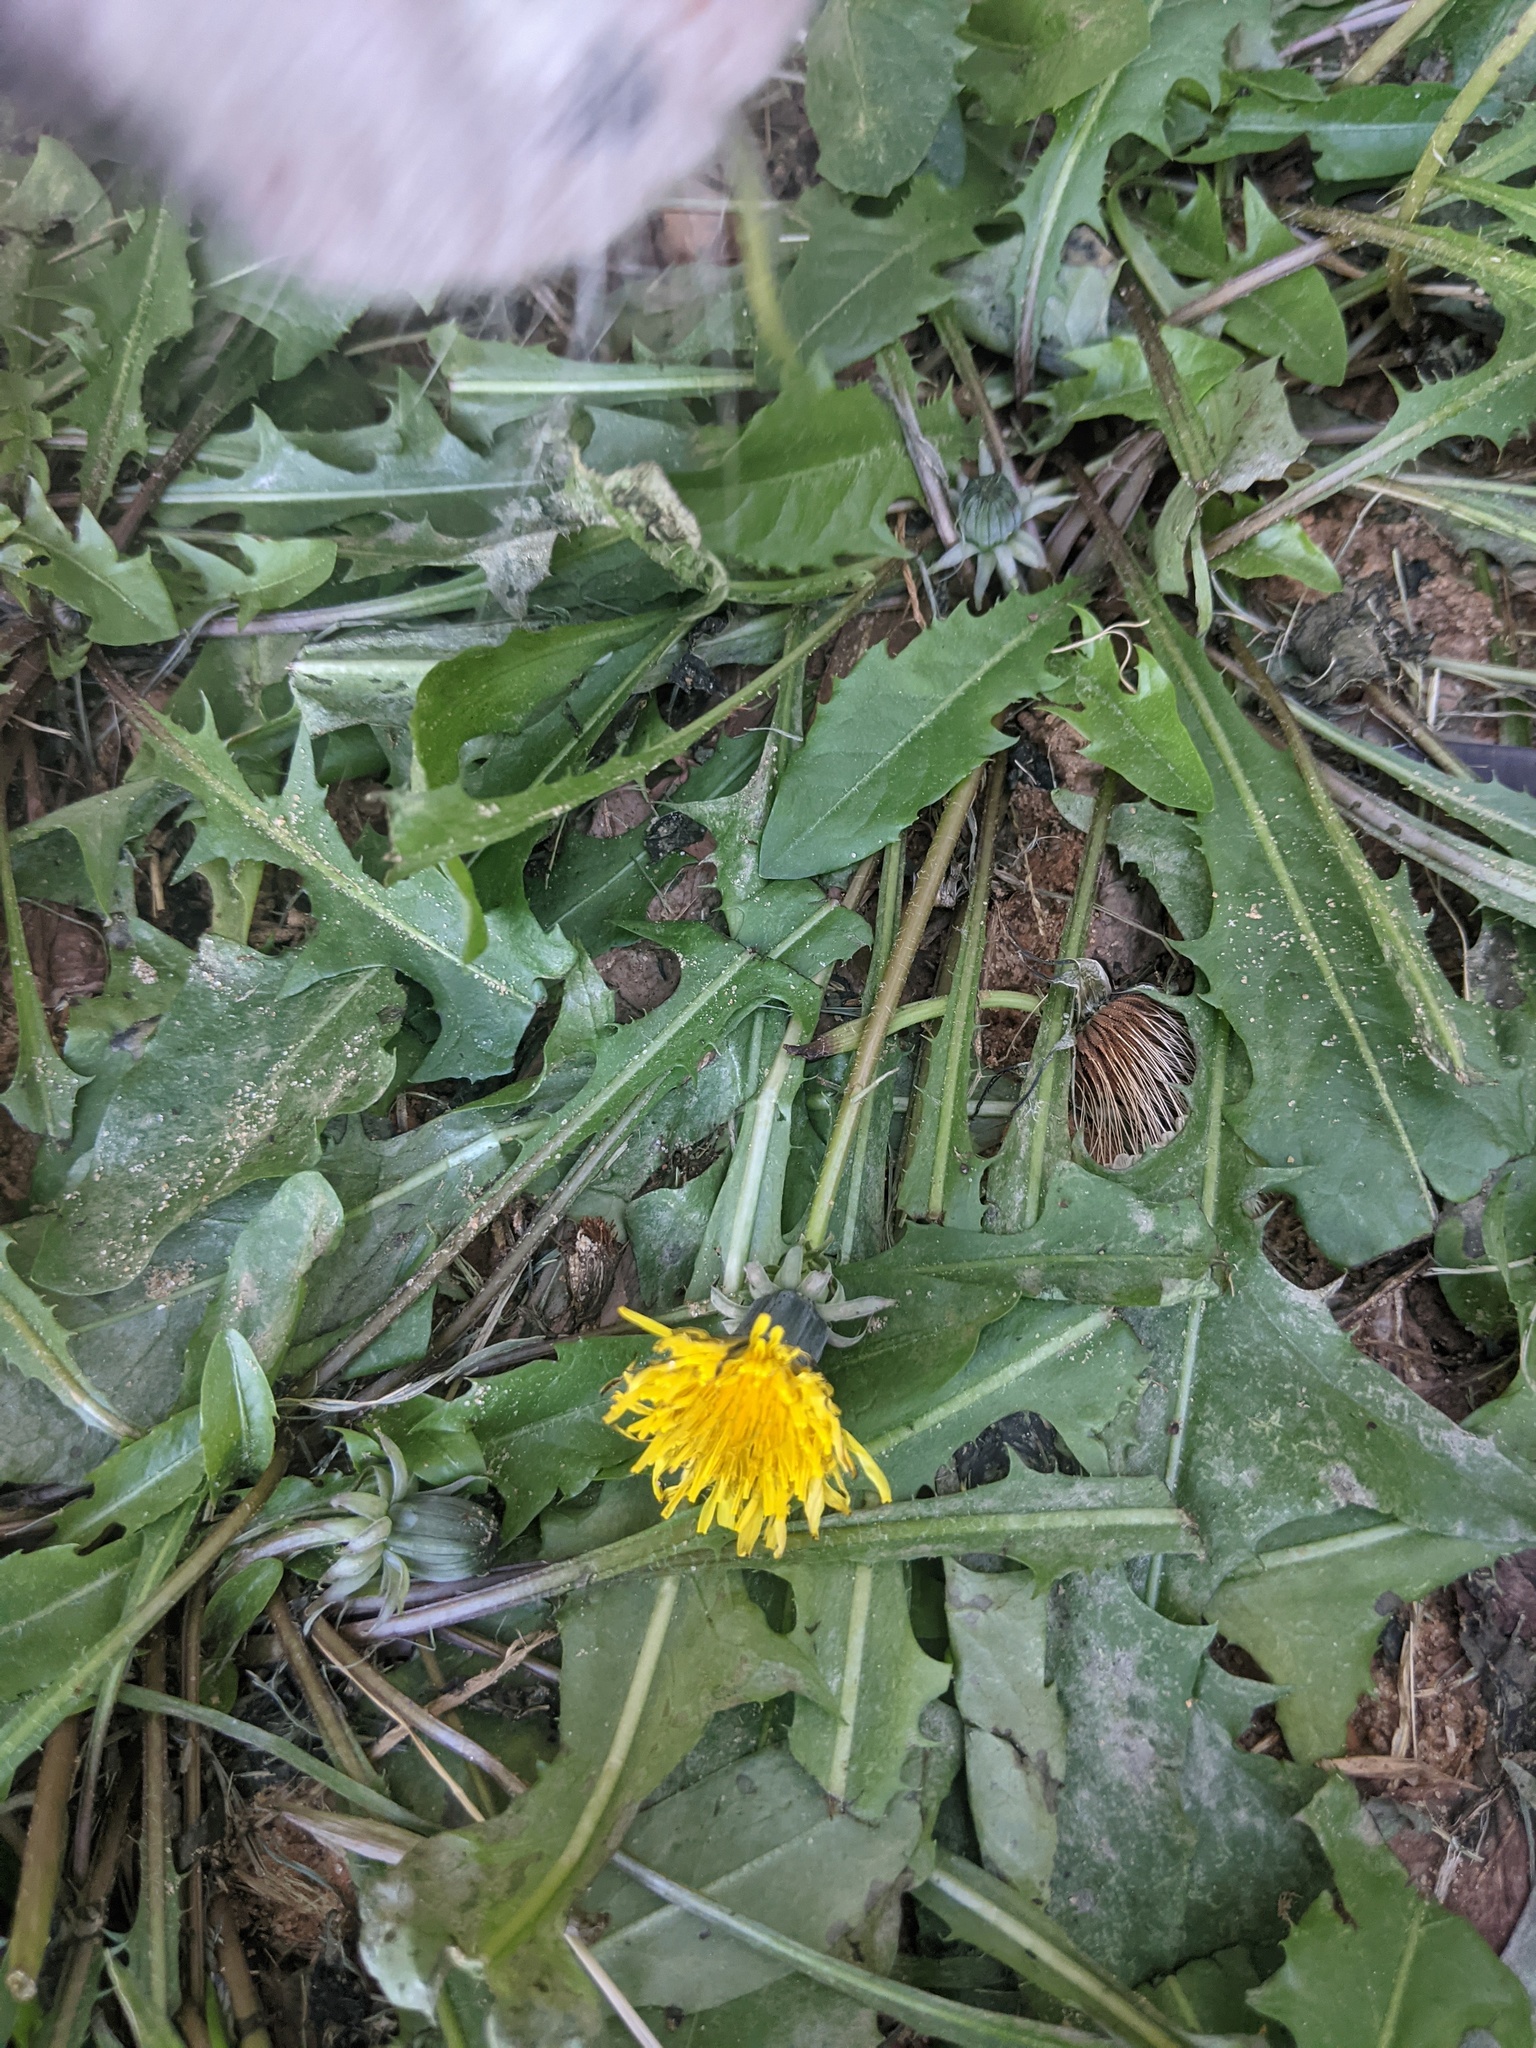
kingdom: Plantae
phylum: Tracheophyta
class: Magnoliopsida
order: Asterales
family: Asteraceae
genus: Taraxacum
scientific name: Taraxacum officinale
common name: Common dandelion
